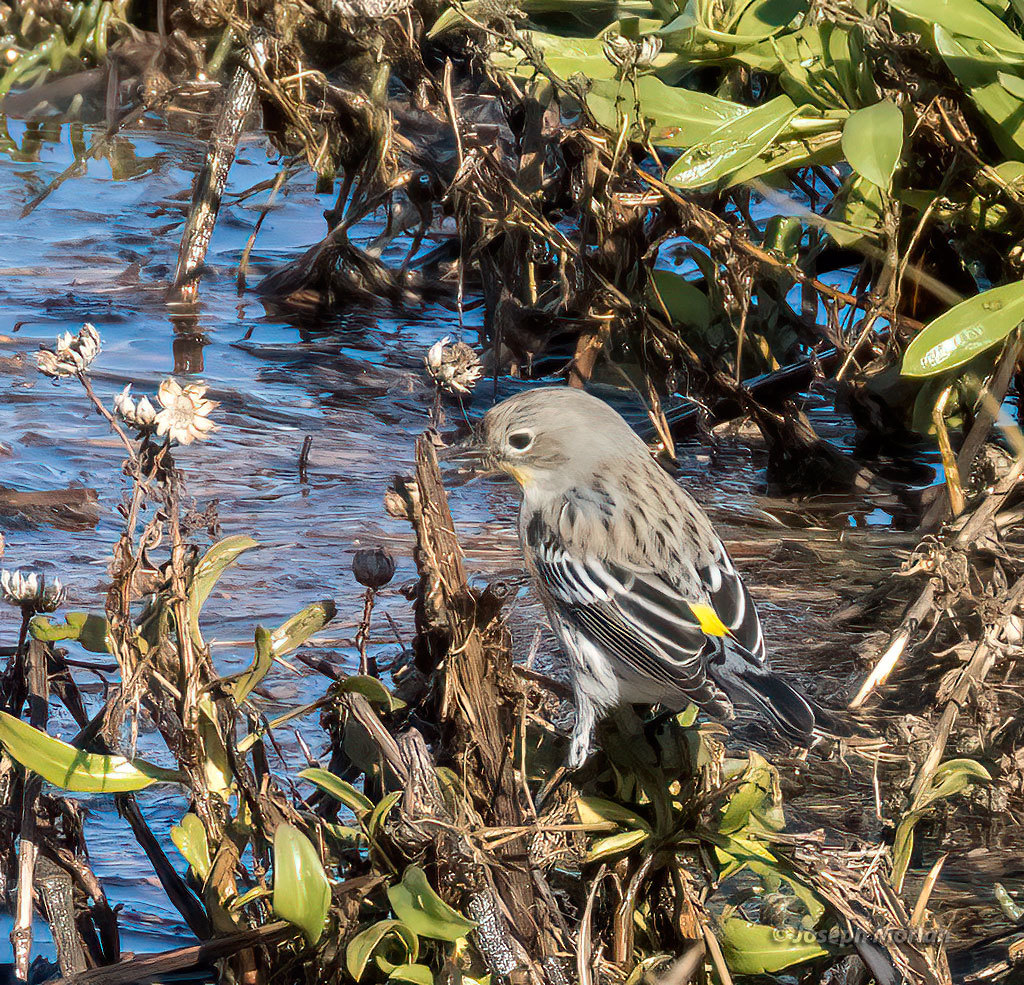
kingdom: Animalia
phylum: Chordata
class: Aves
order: Passeriformes
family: Parulidae
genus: Setophaga
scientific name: Setophaga coronata
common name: Myrtle warbler
